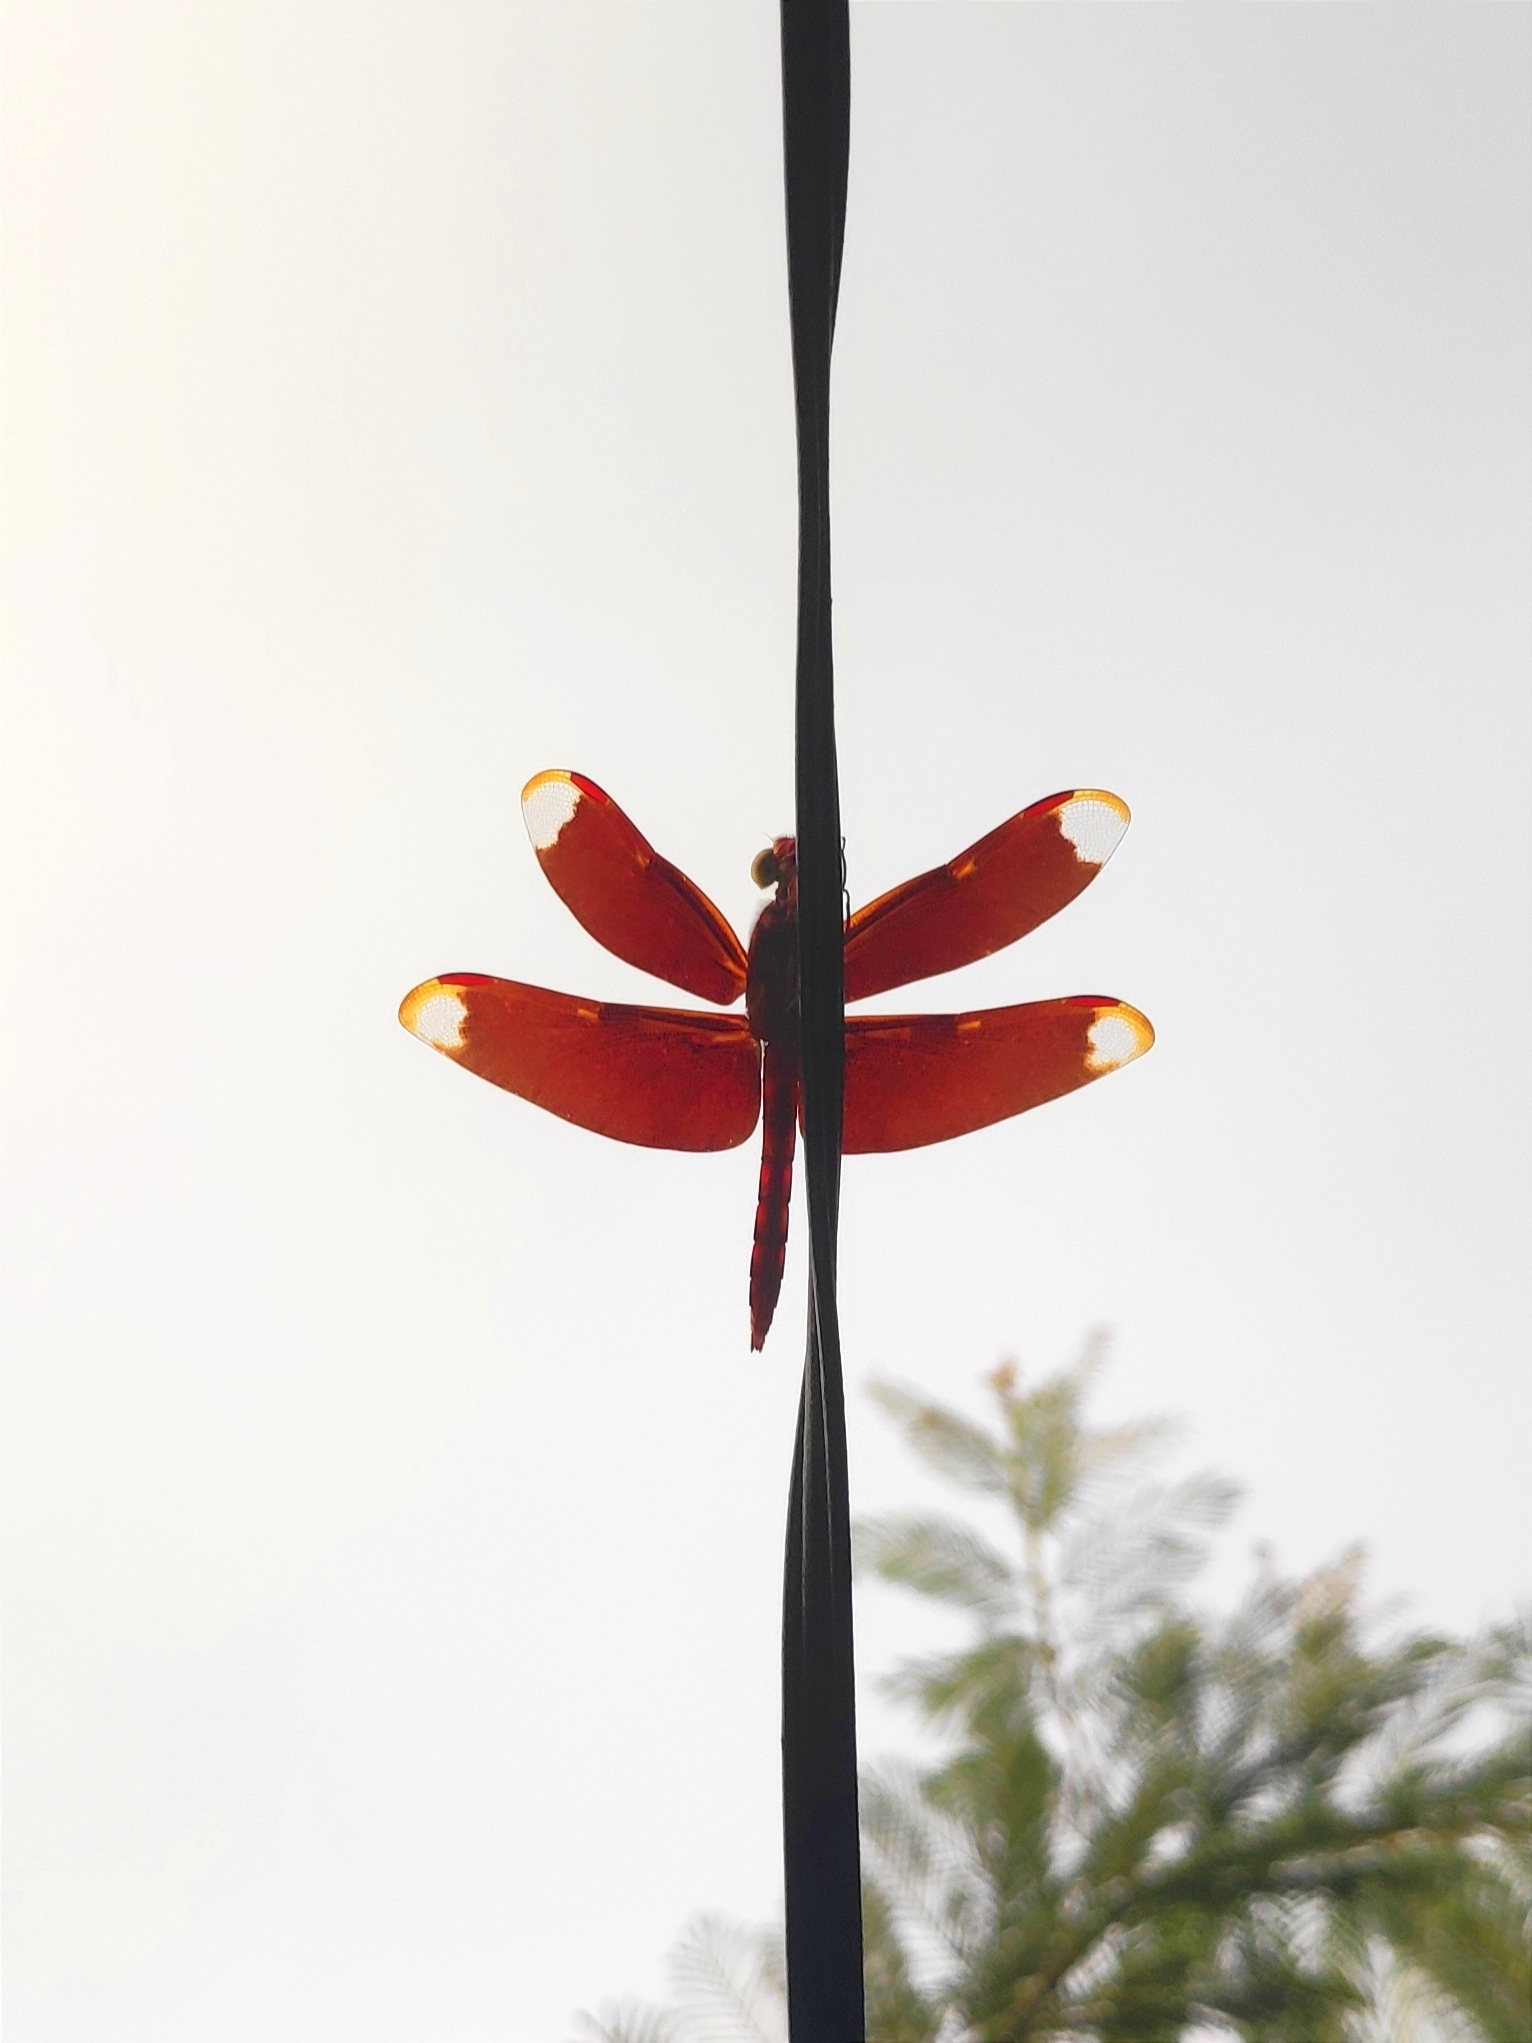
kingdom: Animalia
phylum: Arthropoda
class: Insecta
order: Odonata
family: Libellulidae
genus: Neurothemis
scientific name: Neurothemis fulvia
